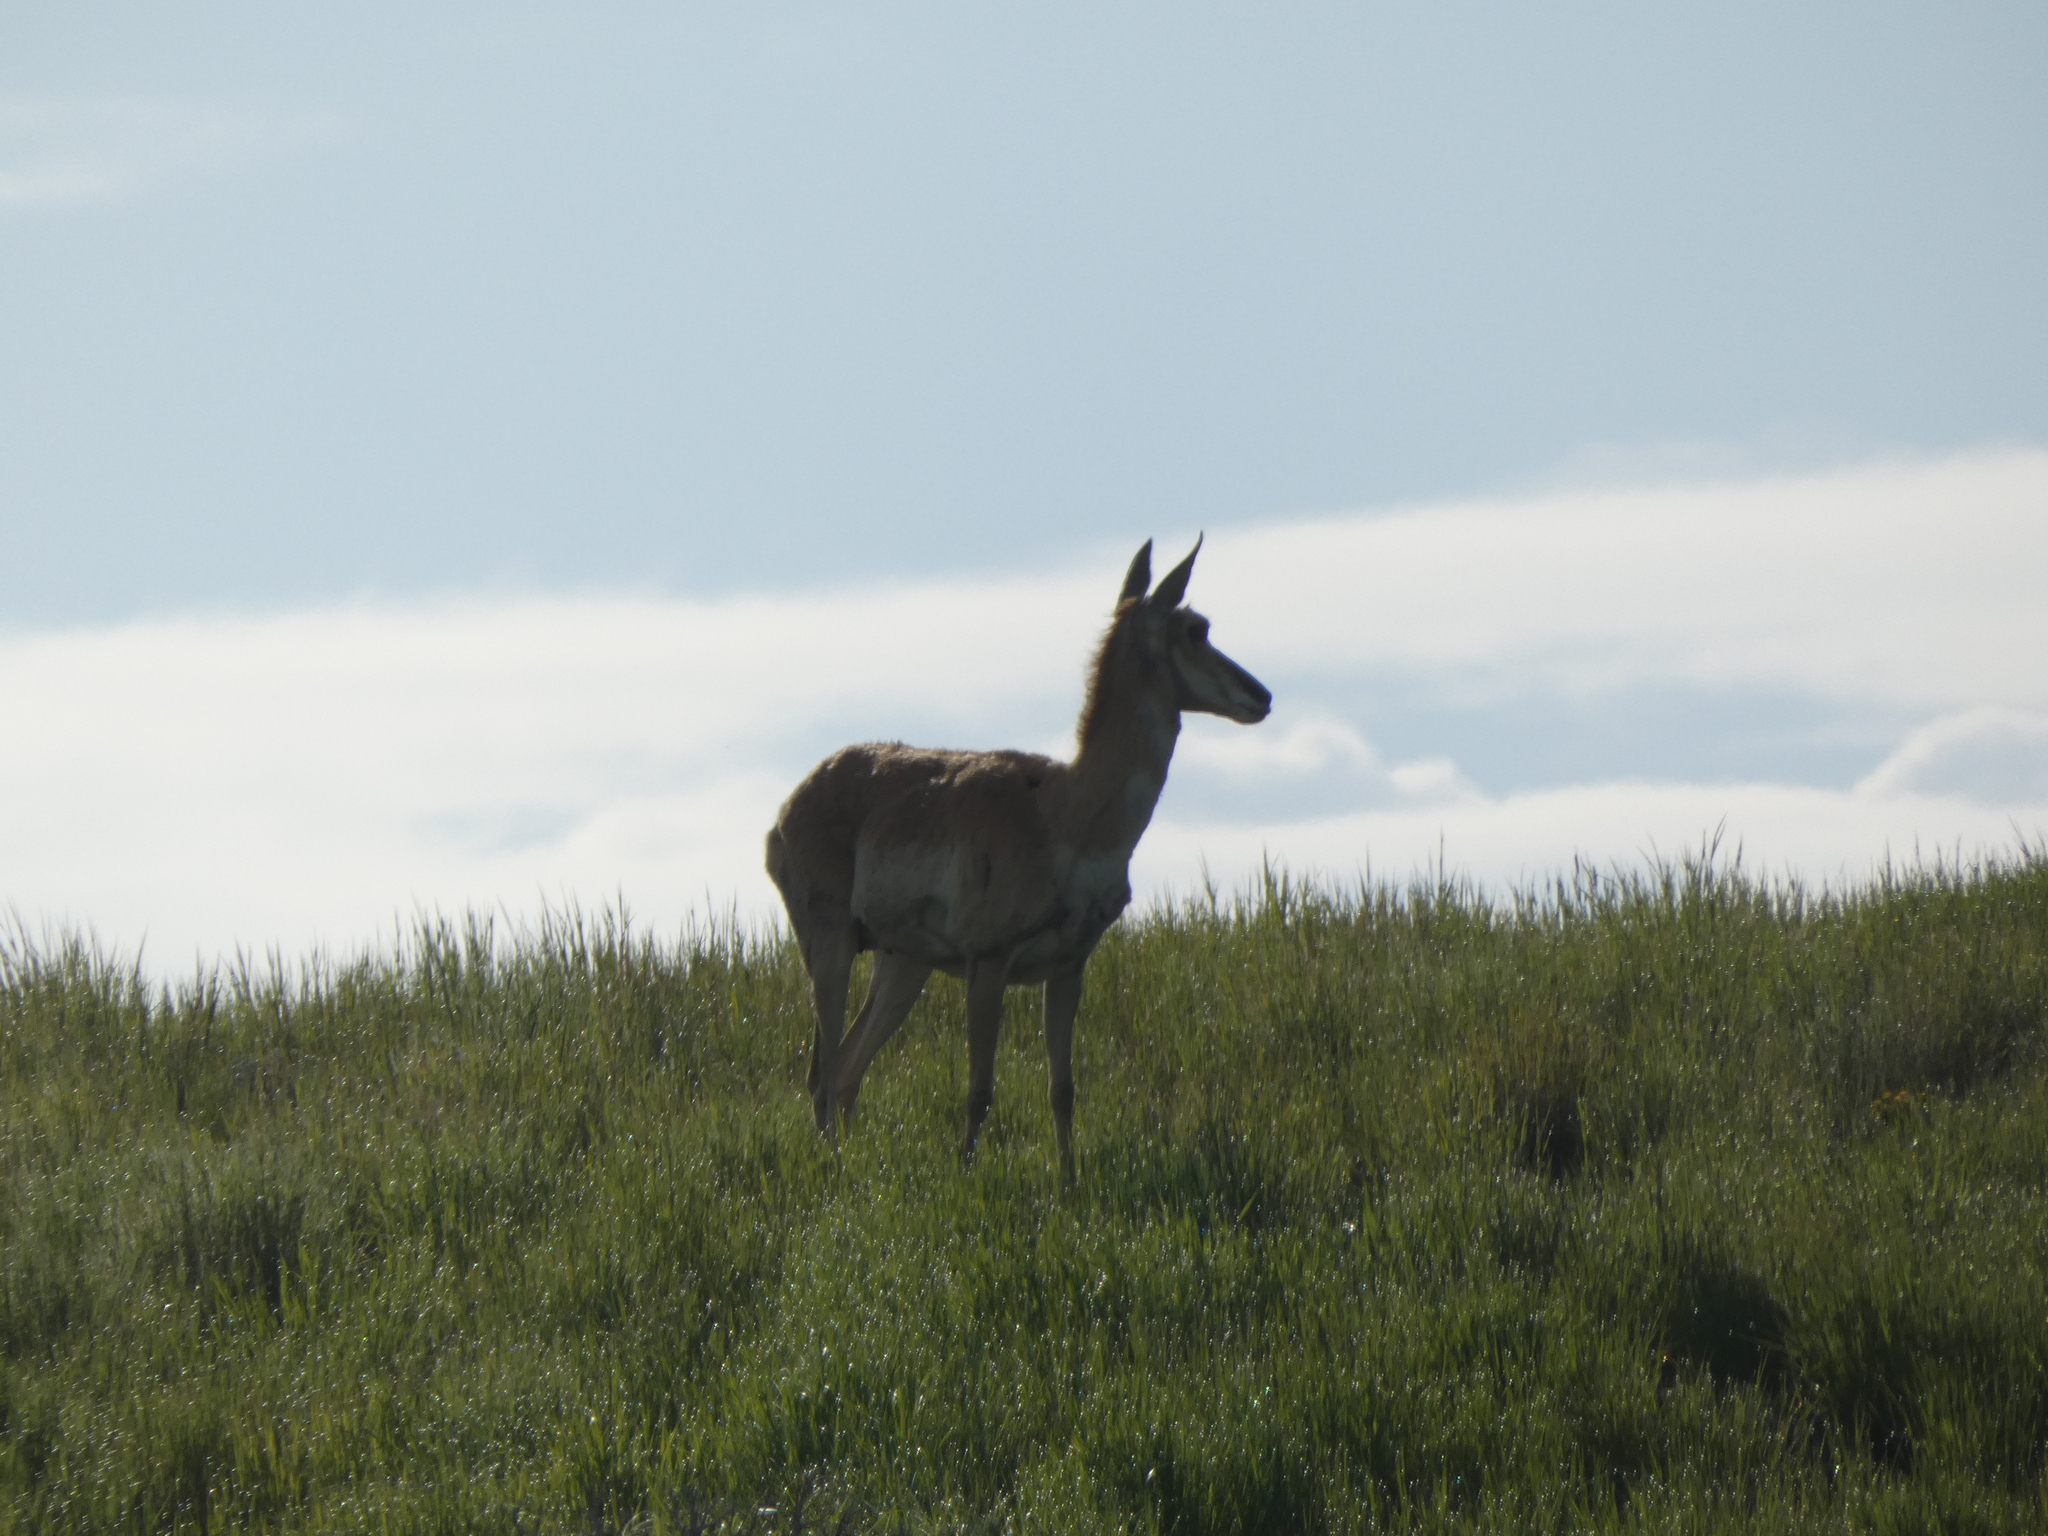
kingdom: Animalia
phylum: Chordata
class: Mammalia
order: Artiodactyla
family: Antilocapridae
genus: Antilocapra
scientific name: Antilocapra americana
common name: Pronghorn
